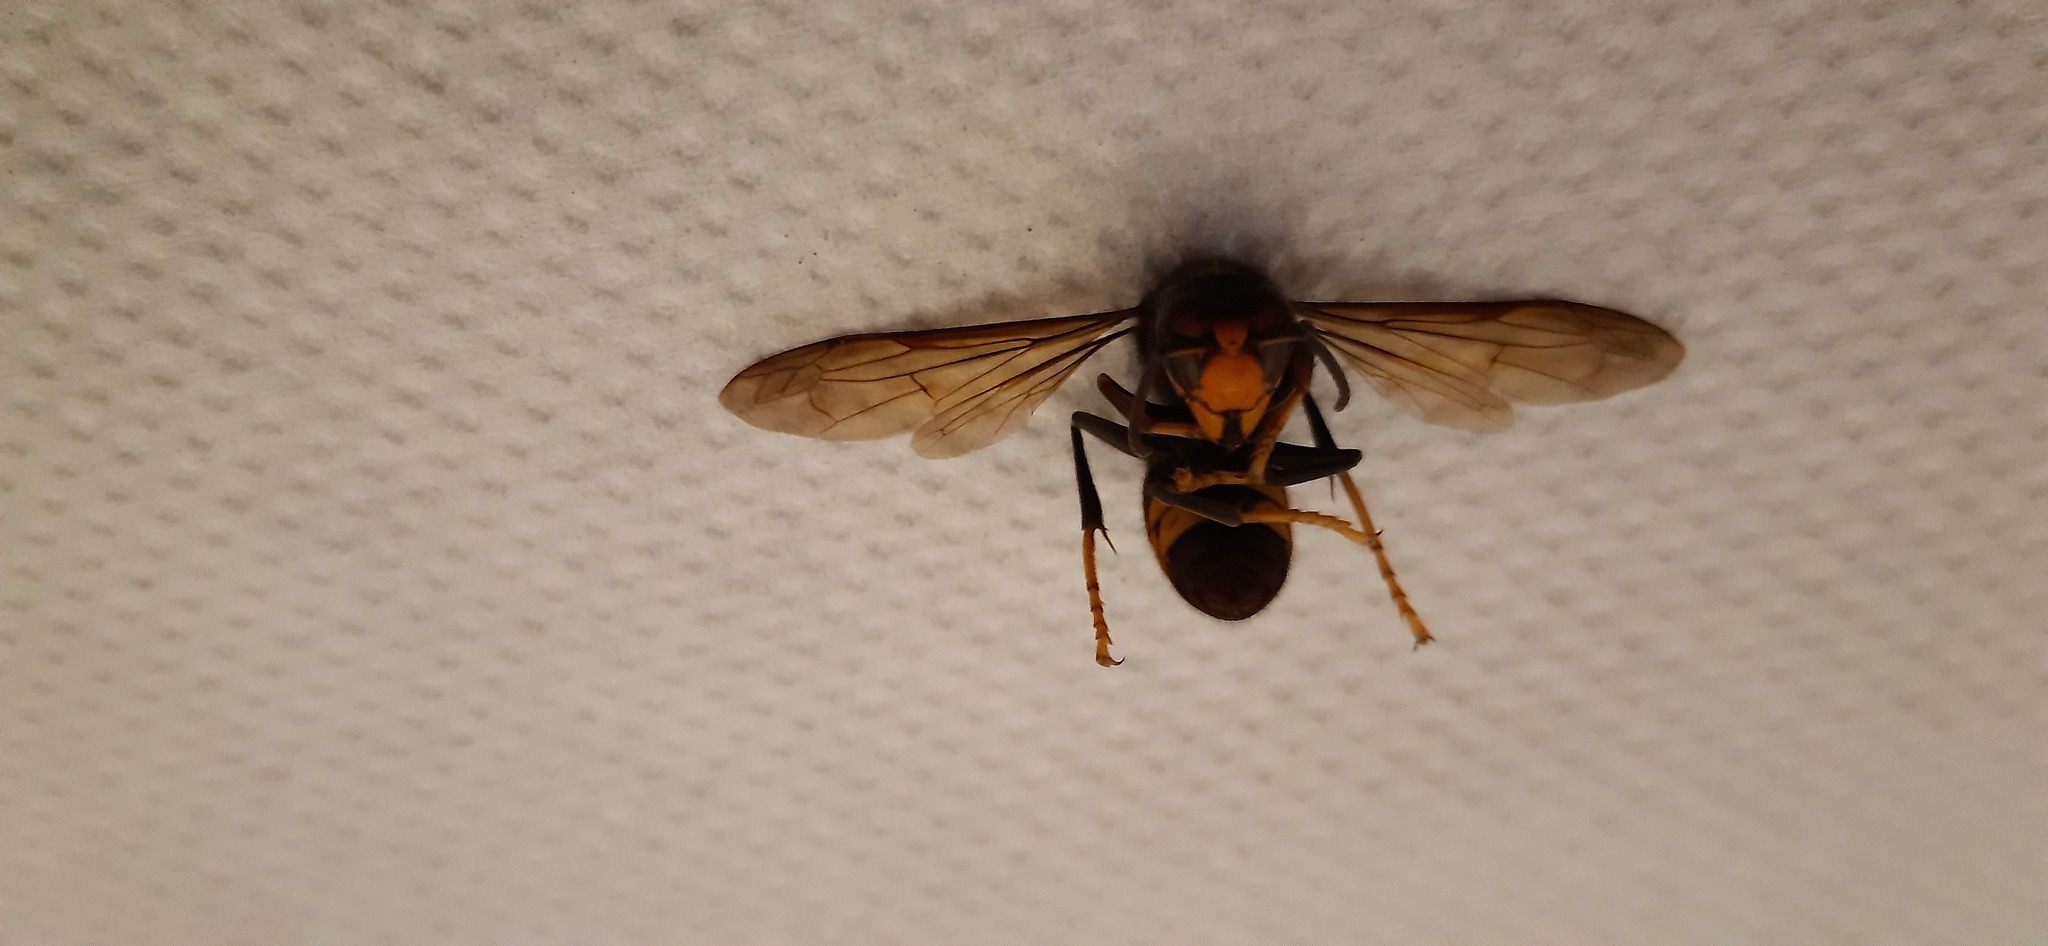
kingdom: Animalia
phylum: Arthropoda
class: Insecta
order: Hymenoptera
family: Vespidae
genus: Vespa
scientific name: Vespa velutina
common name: Asian hornet
